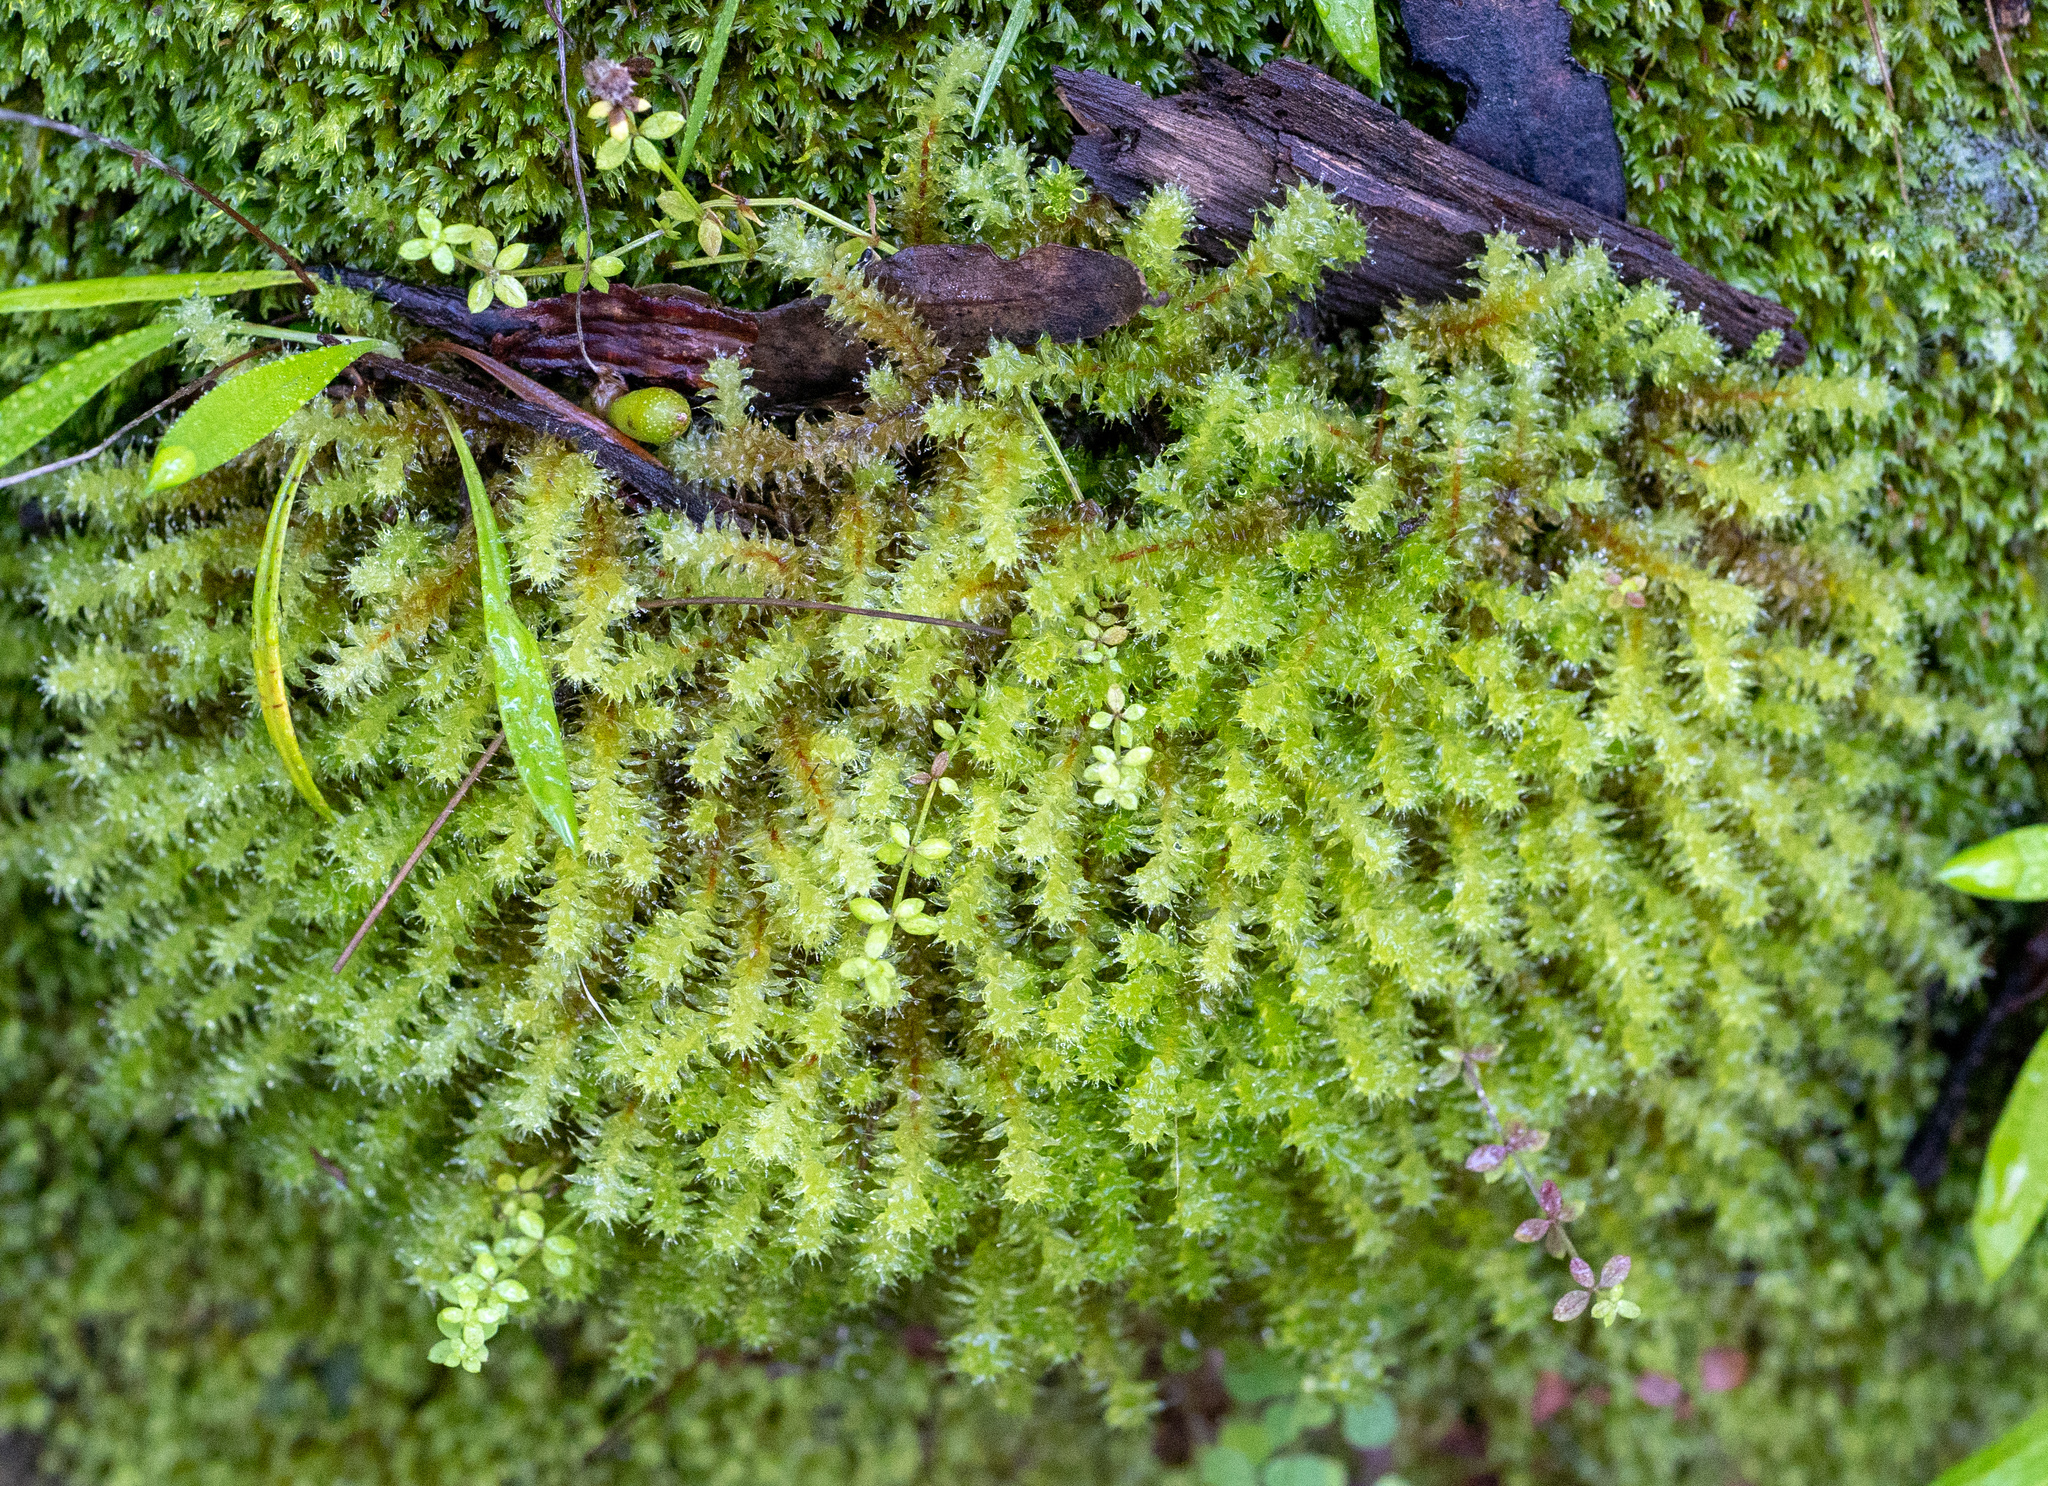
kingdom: Plantae
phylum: Bryophyta
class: Bryopsida
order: Ptychomniales
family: Ptychomniaceae
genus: Ptychomnion
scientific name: Ptychomnion aciculare
